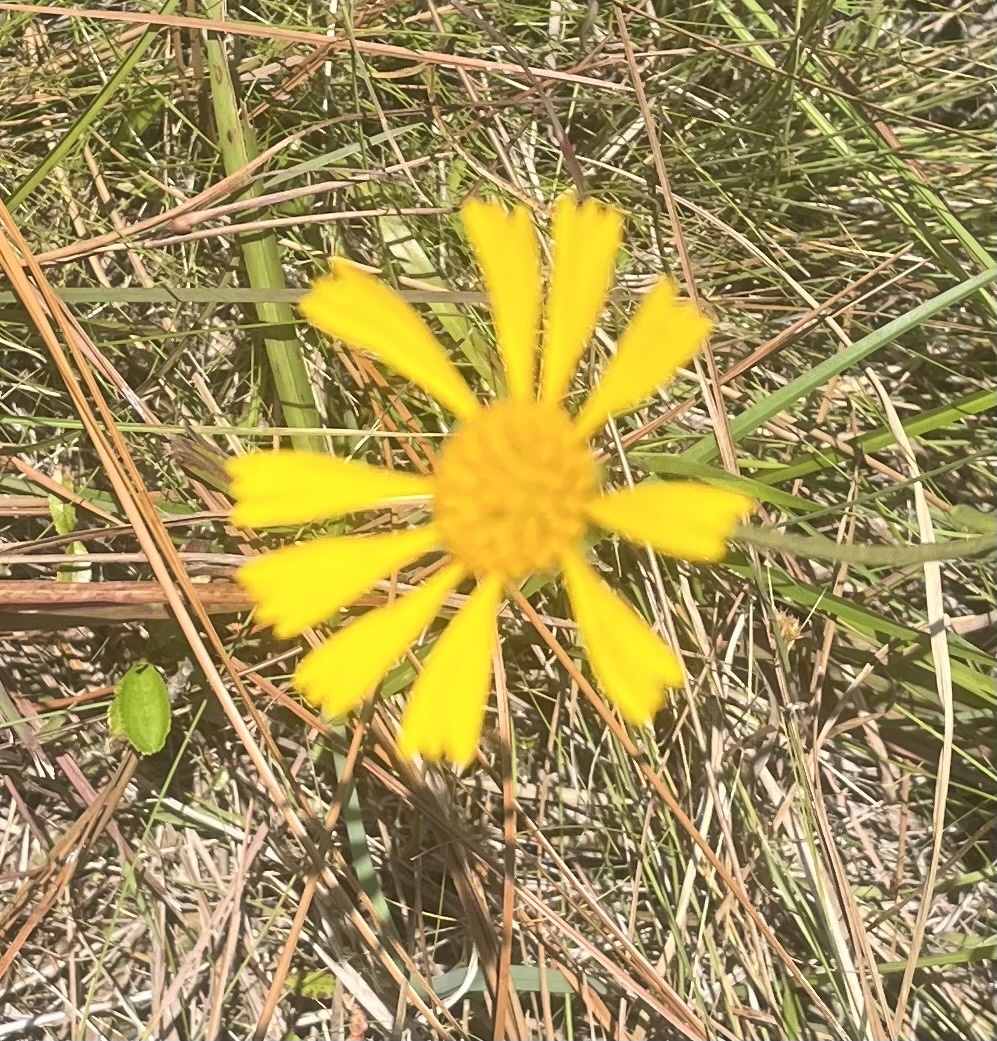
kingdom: Plantae
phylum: Tracheophyta
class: Magnoliopsida
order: Asterales
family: Asteraceae
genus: Balduina
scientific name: Balduina uniflora
